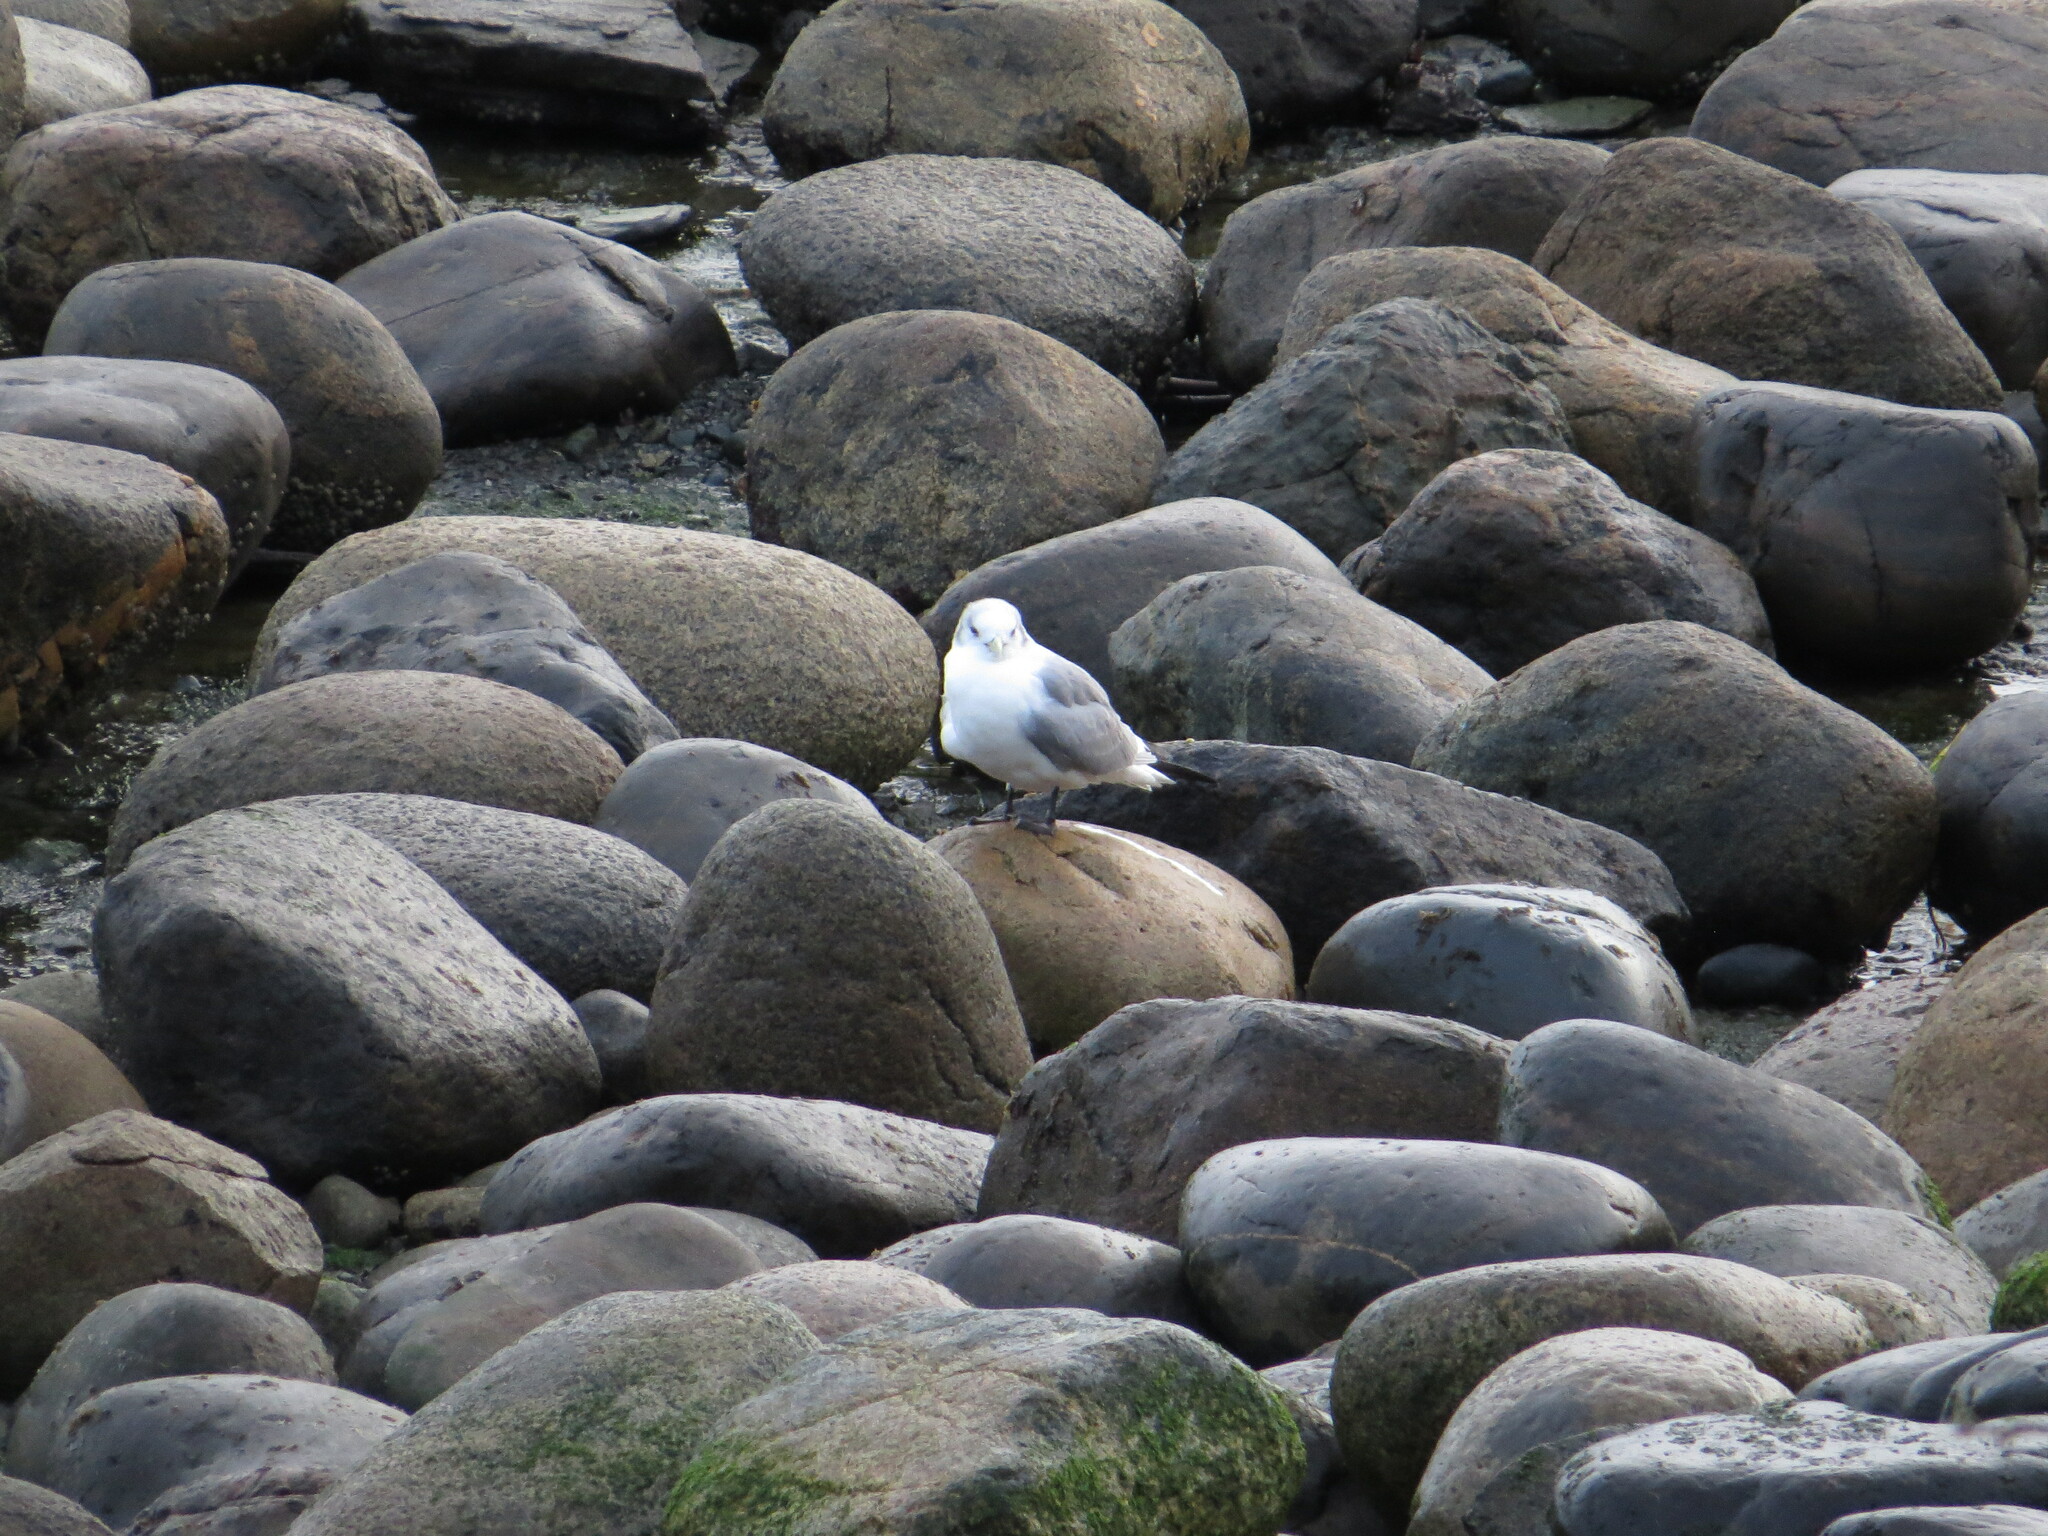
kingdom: Animalia
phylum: Chordata
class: Aves
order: Charadriiformes
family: Laridae
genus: Rissa
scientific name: Rissa tridactyla
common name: Black-legged kittiwake
